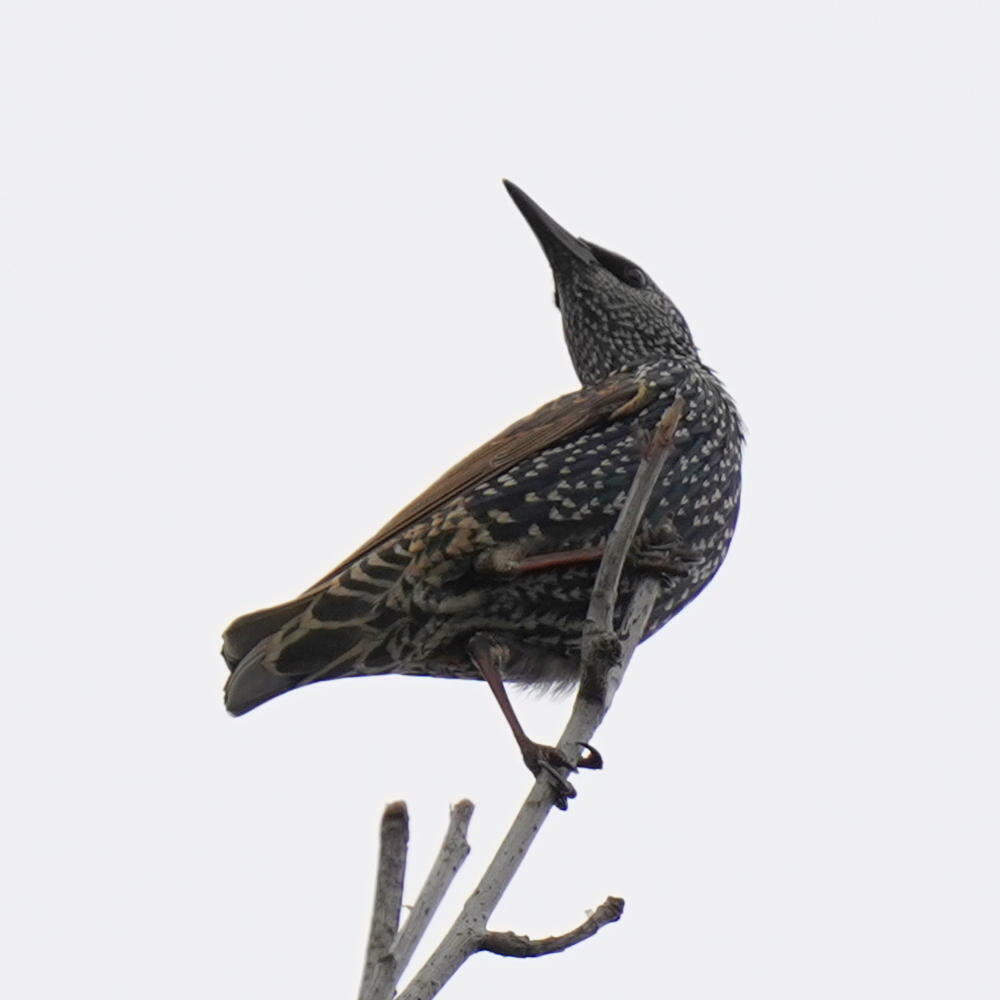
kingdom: Animalia
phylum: Chordata
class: Aves
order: Passeriformes
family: Sturnidae
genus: Sturnus
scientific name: Sturnus vulgaris
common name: Common starling
